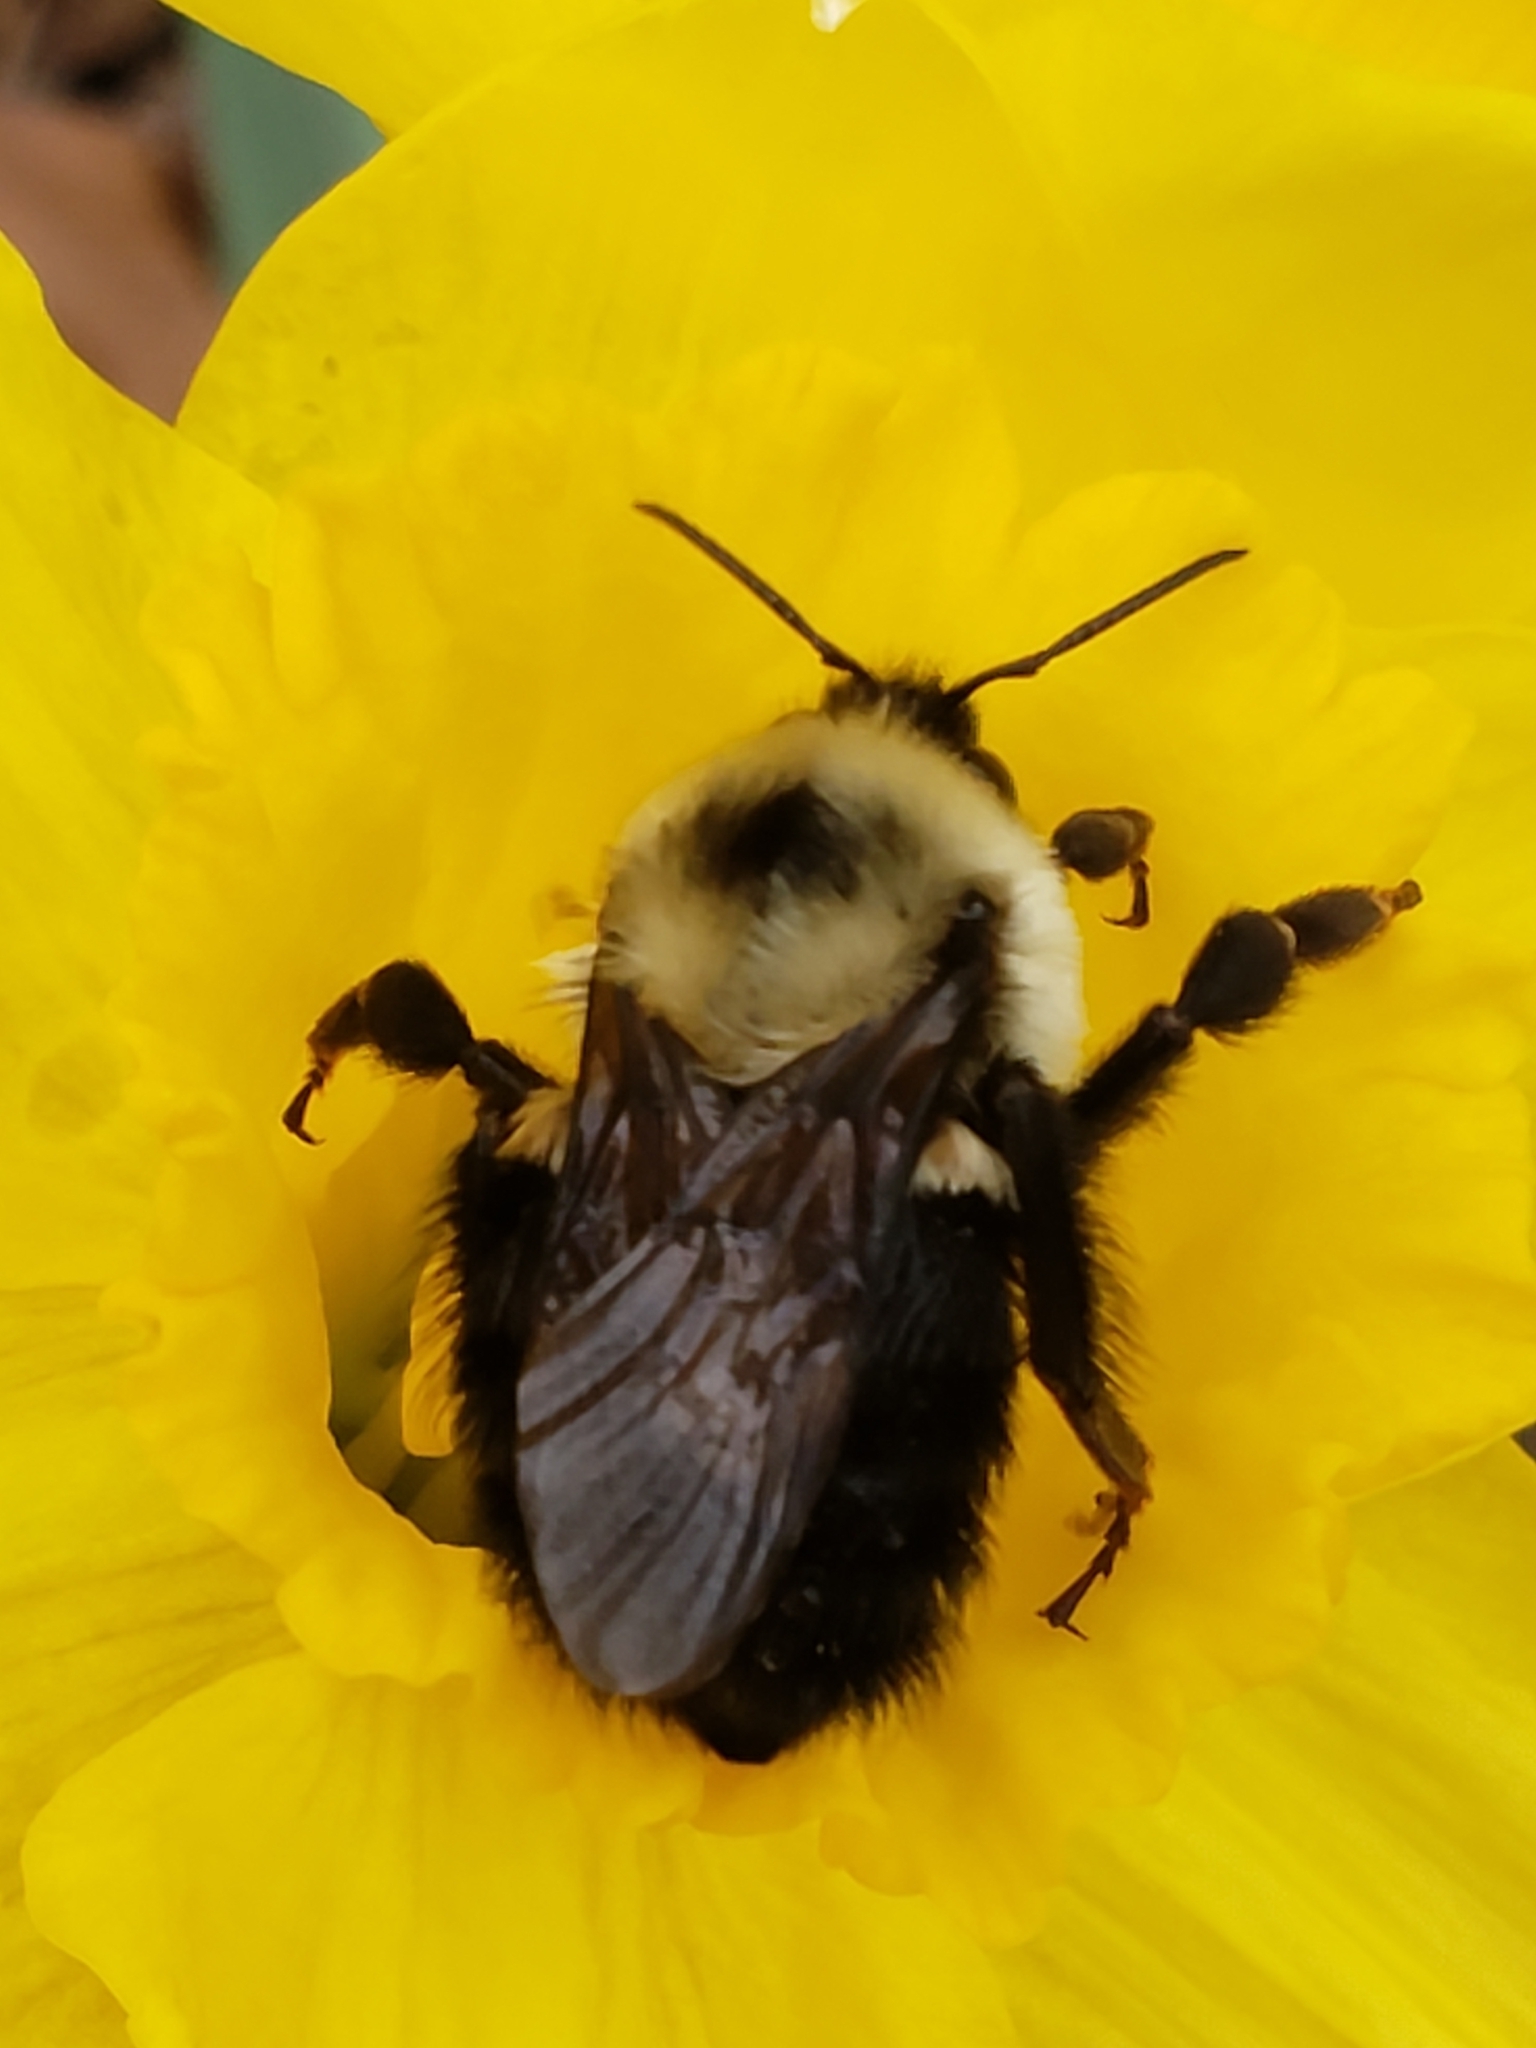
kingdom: Animalia
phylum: Arthropoda
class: Insecta
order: Hymenoptera
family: Apidae
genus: Bombus
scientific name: Bombus bimaculatus
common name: Two-spotted bumble bee
